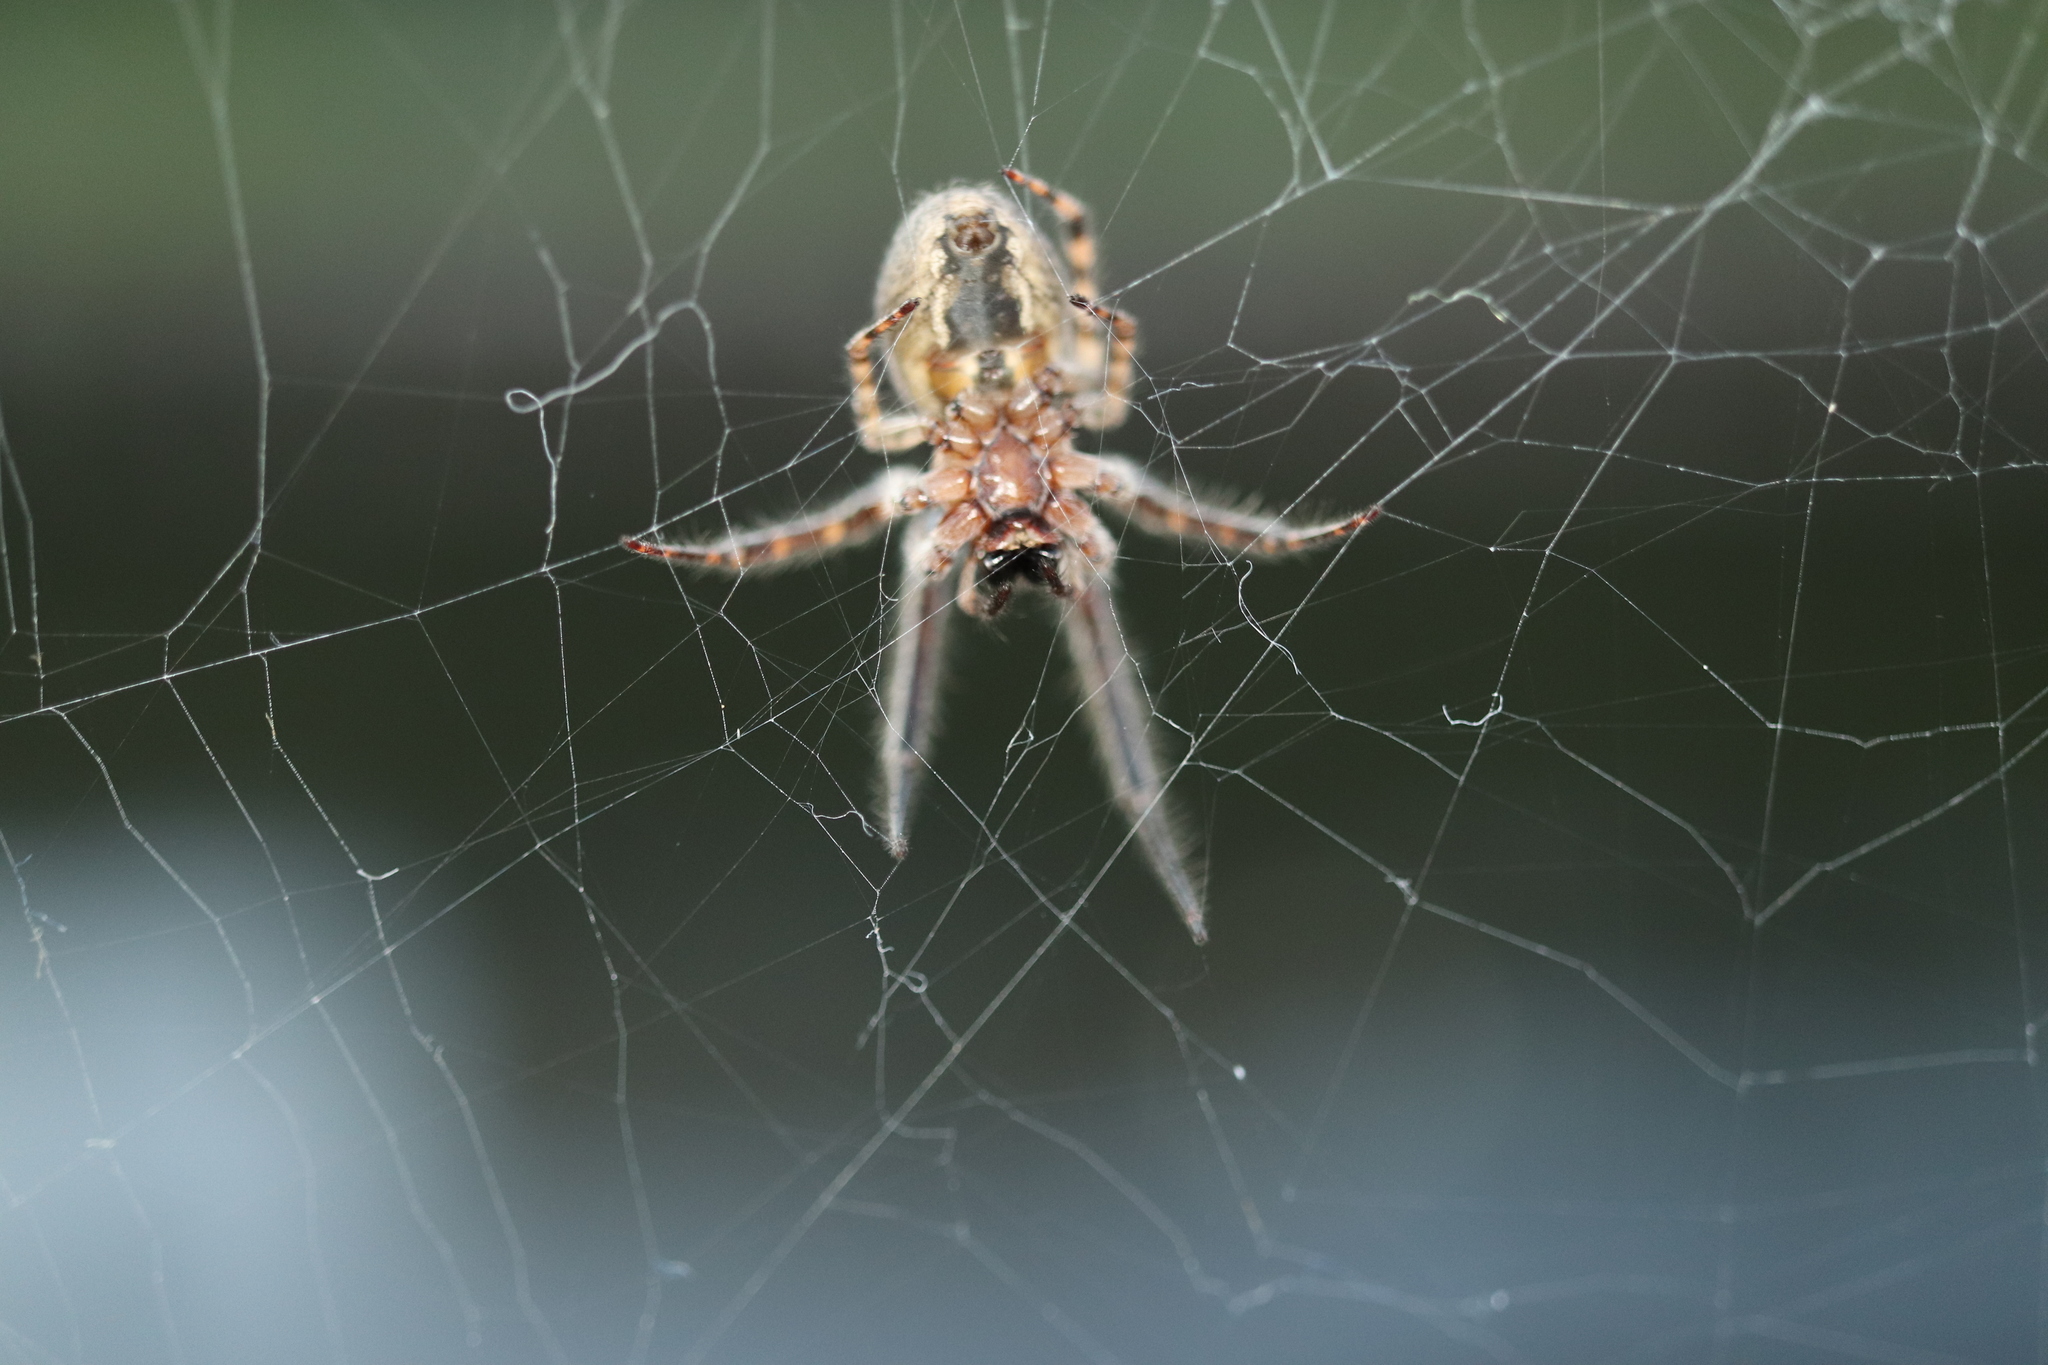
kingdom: Animalia
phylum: Arthropoda
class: Arachnida
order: Araneae
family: Araneidae
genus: Yaginumia
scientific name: Yaginumia sia
